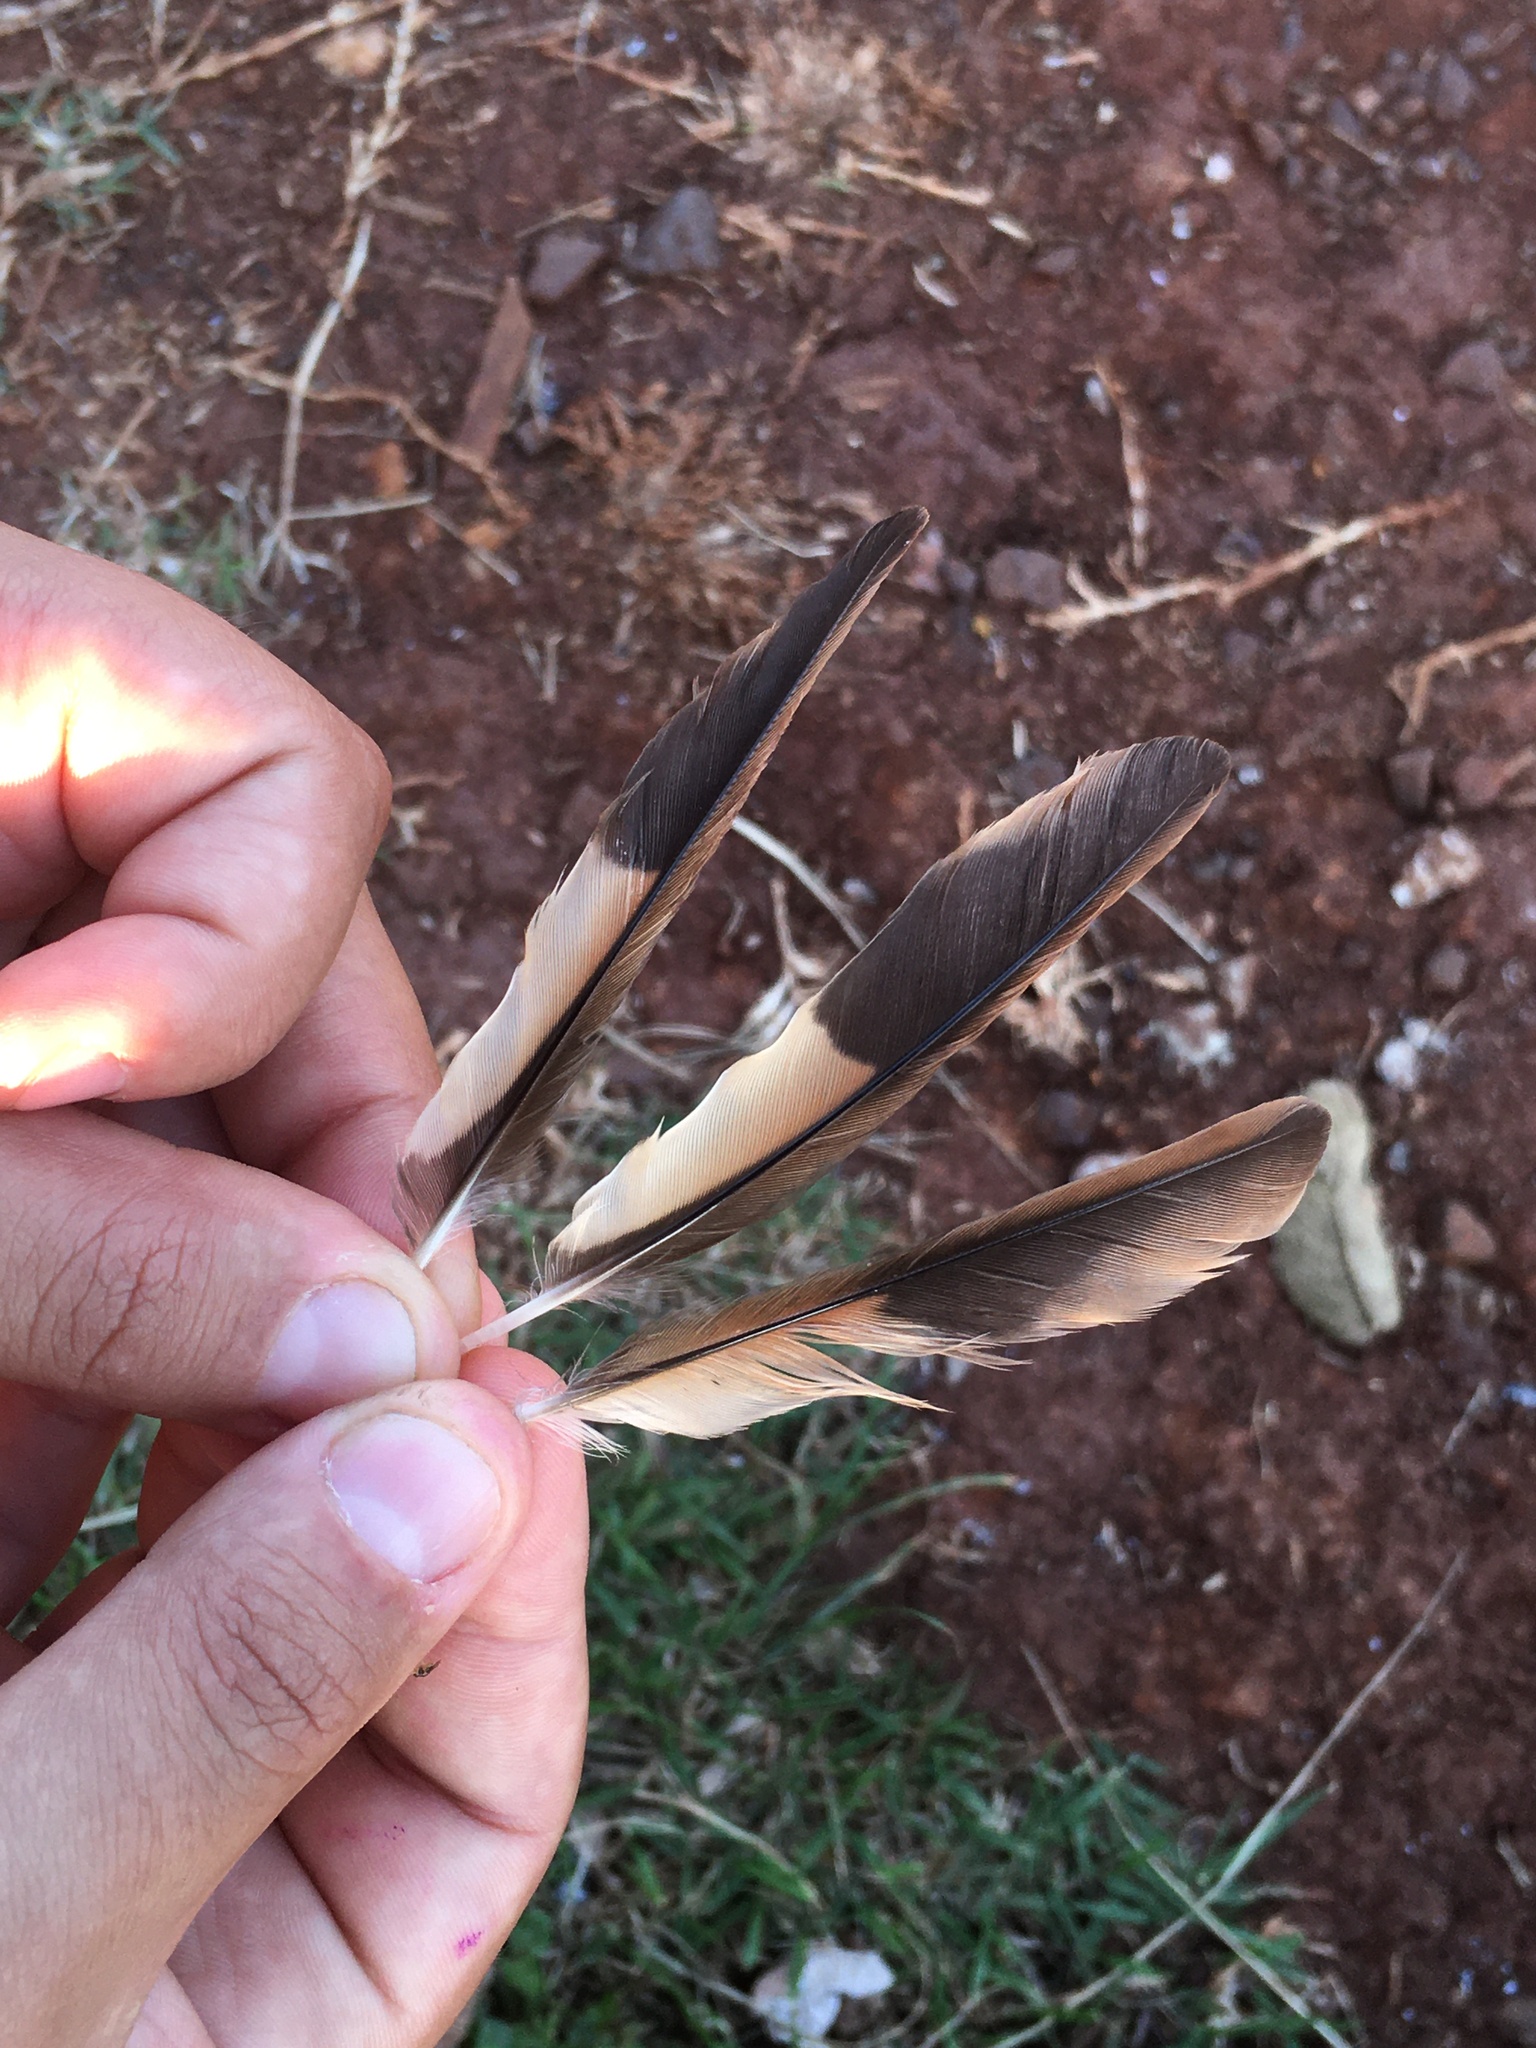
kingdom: Animalia
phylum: Chordata
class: Aves
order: Passeriformes
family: Furnariidae
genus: Furnarius
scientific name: Furnarius rufus
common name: Rufous hornero
